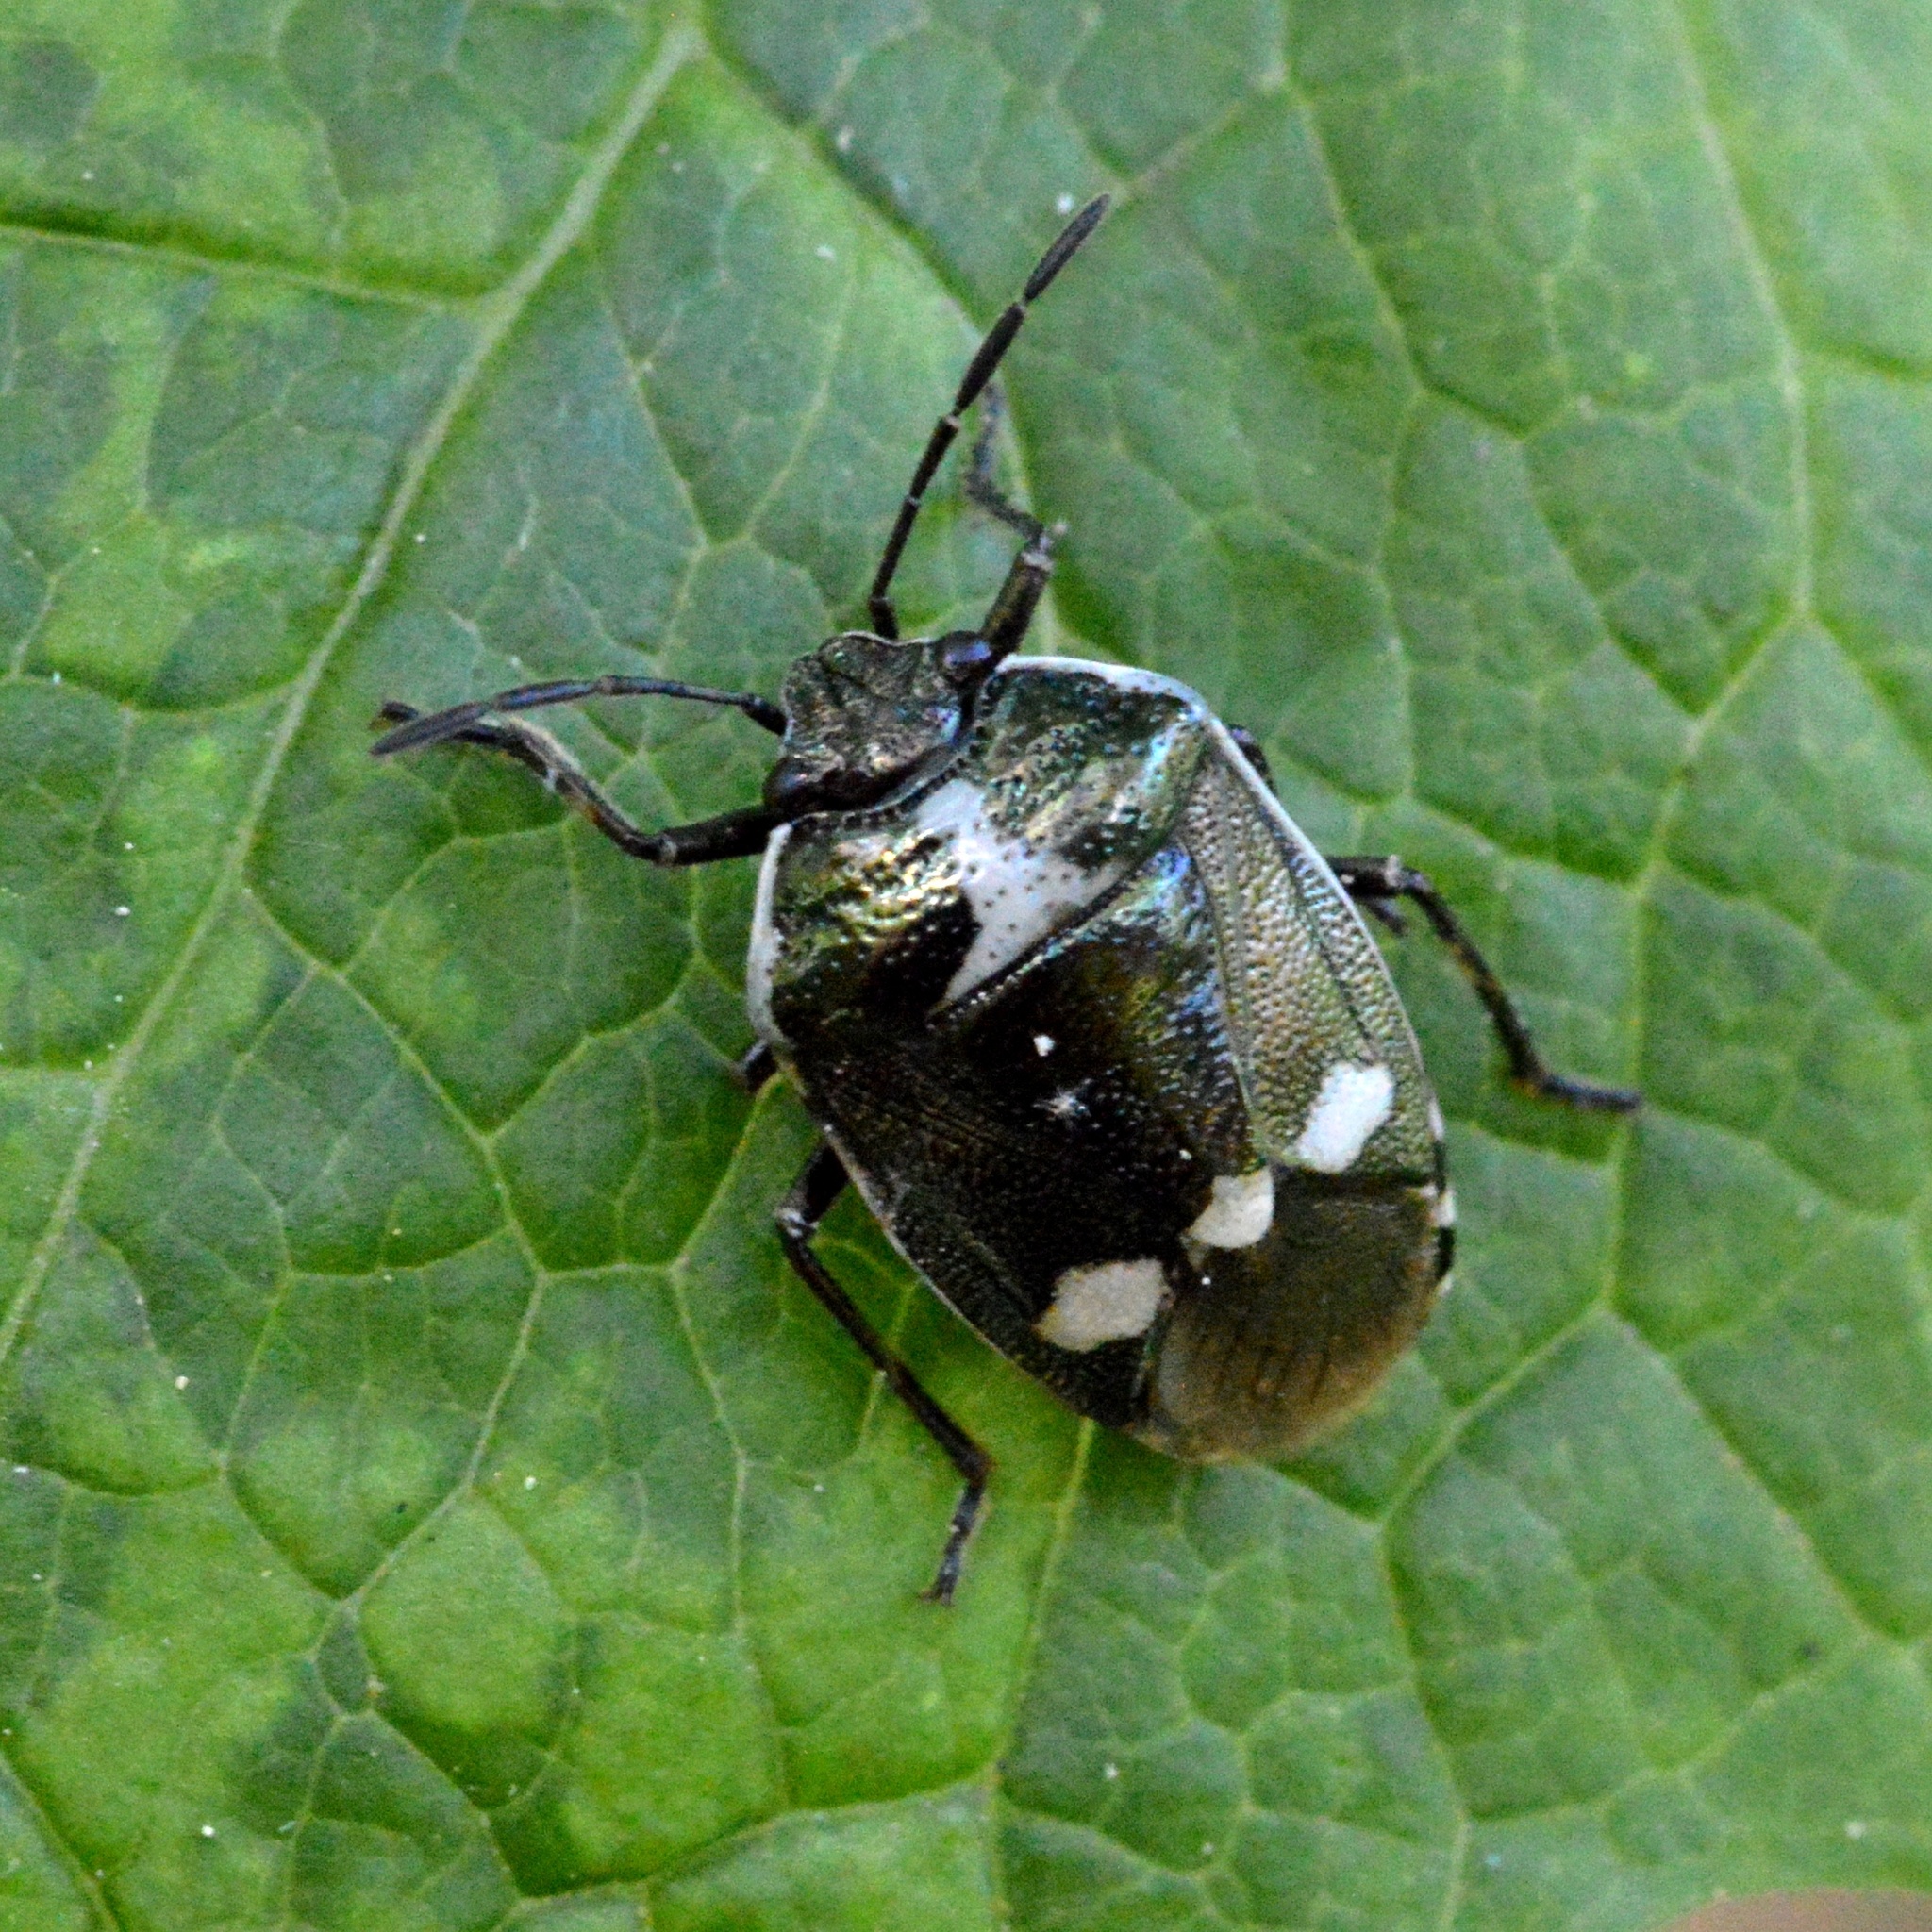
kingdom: Animalia
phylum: Arthropoda
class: Insecta
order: Hemiptera
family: Pentatomidae
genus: Eurydema
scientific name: Eurydema oleracea
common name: Cabbage bug
